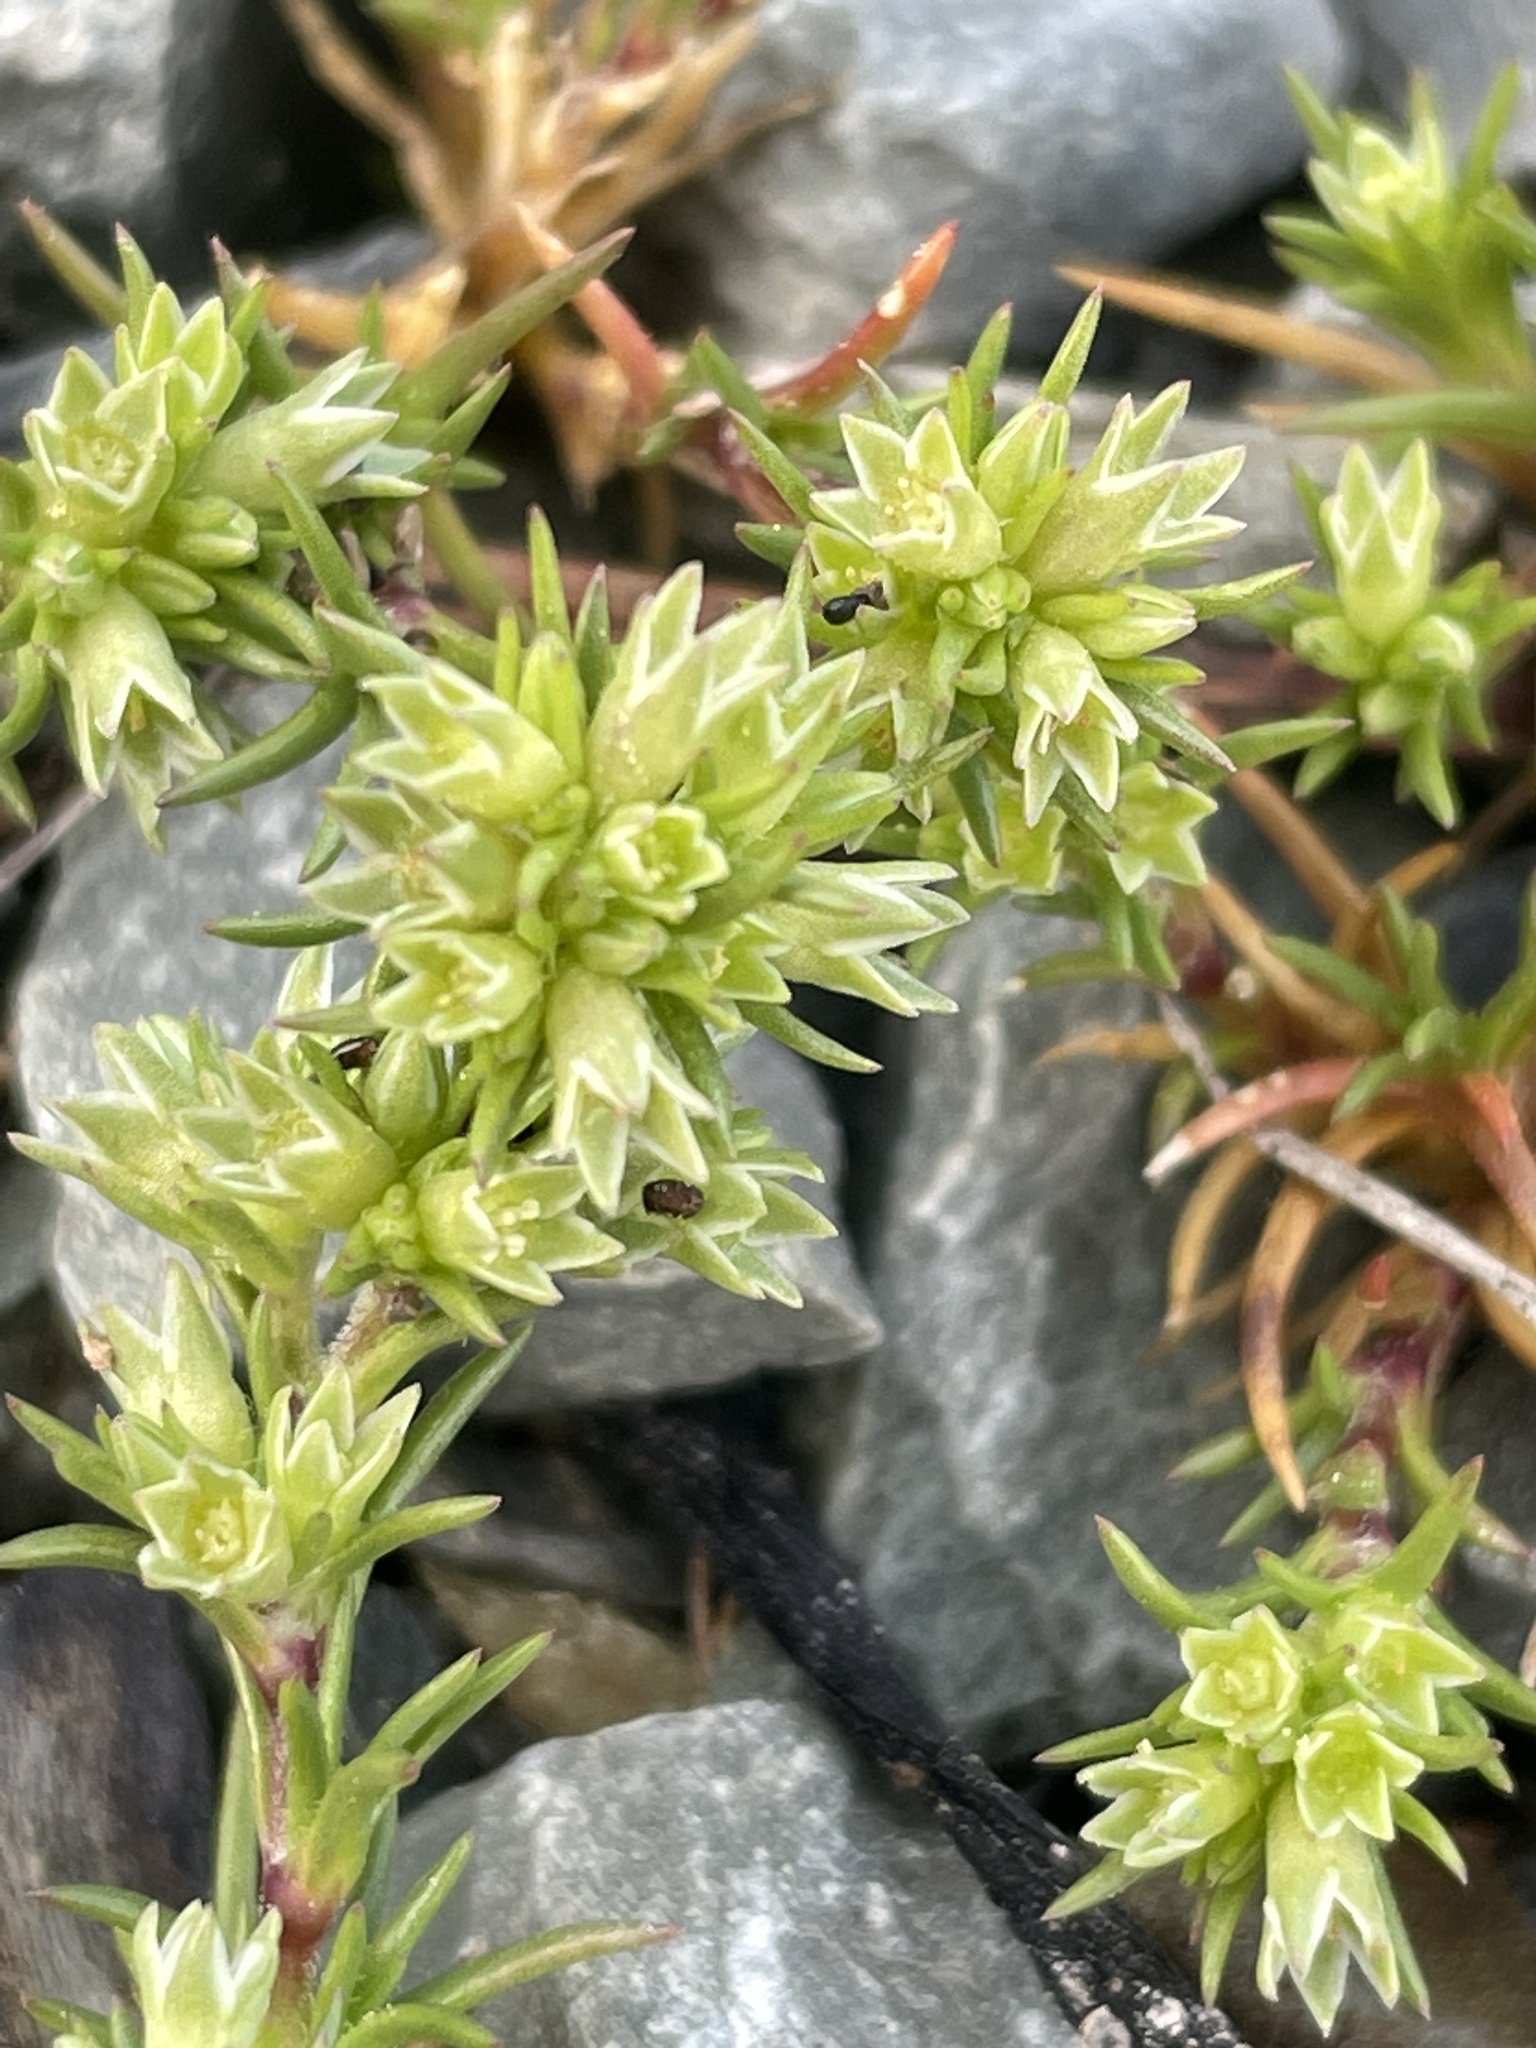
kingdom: Plantae
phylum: Tracheophyta
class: Magnoliopsida
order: Caryophyllales
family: Caryophyllaceae
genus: Scleranthus
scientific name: Scleranthus annuus
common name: Annual knawel
